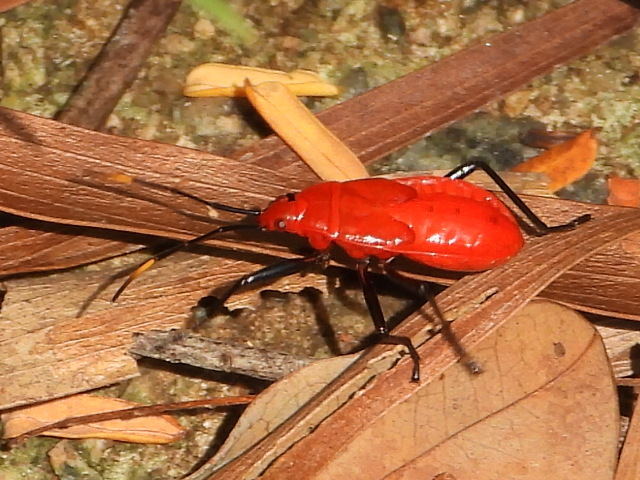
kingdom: Animalia
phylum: Arthropoda
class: Insecta
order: Hemiptera
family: Pyrrhocoridae
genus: Antilochus
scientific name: Antilochus
